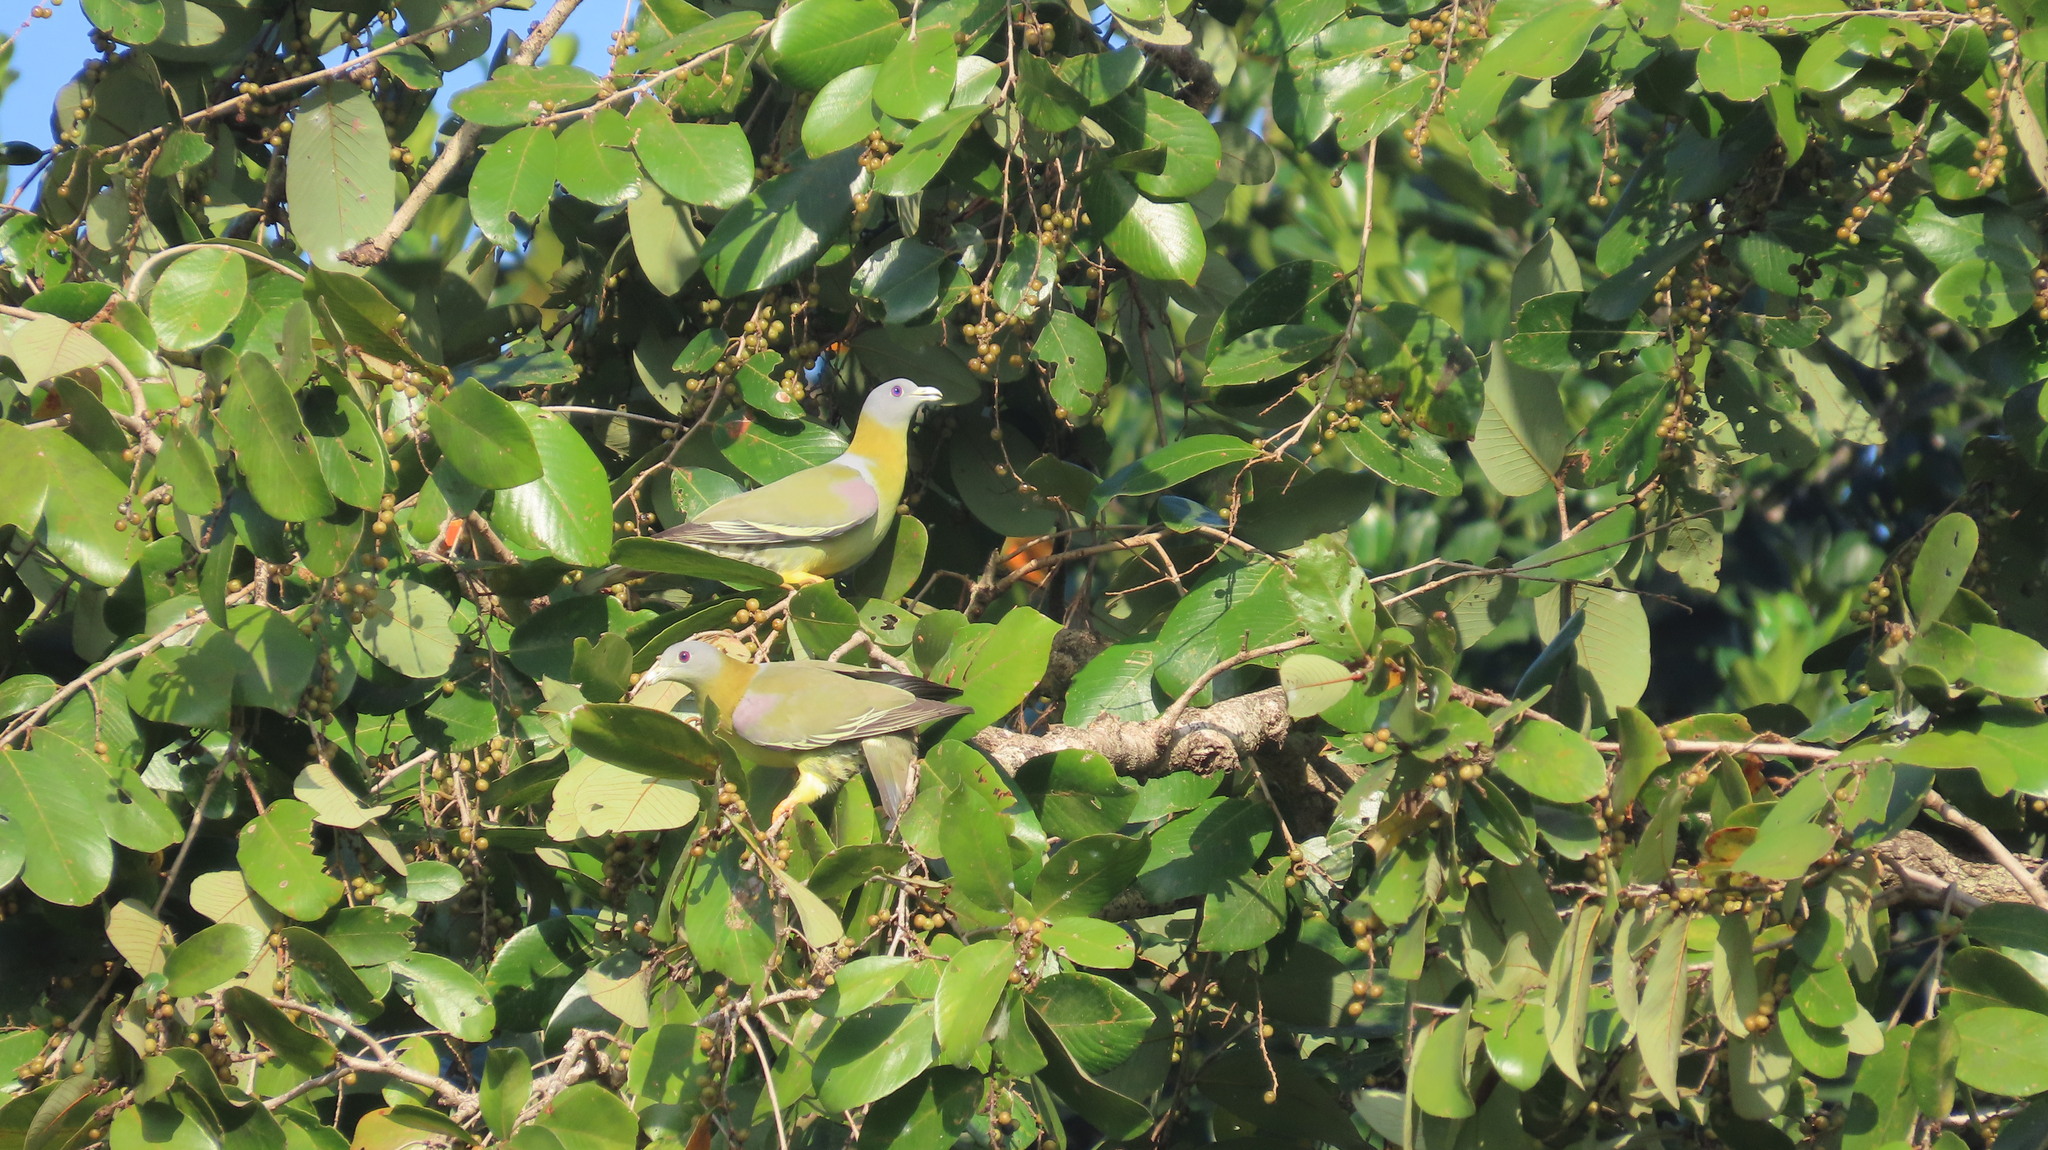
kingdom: Animalia
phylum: Chordata
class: Aves
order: Columbiformes
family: Columbidae
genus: Treron
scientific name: Treron phoenicopterus
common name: Yellow-footed green pigeon
